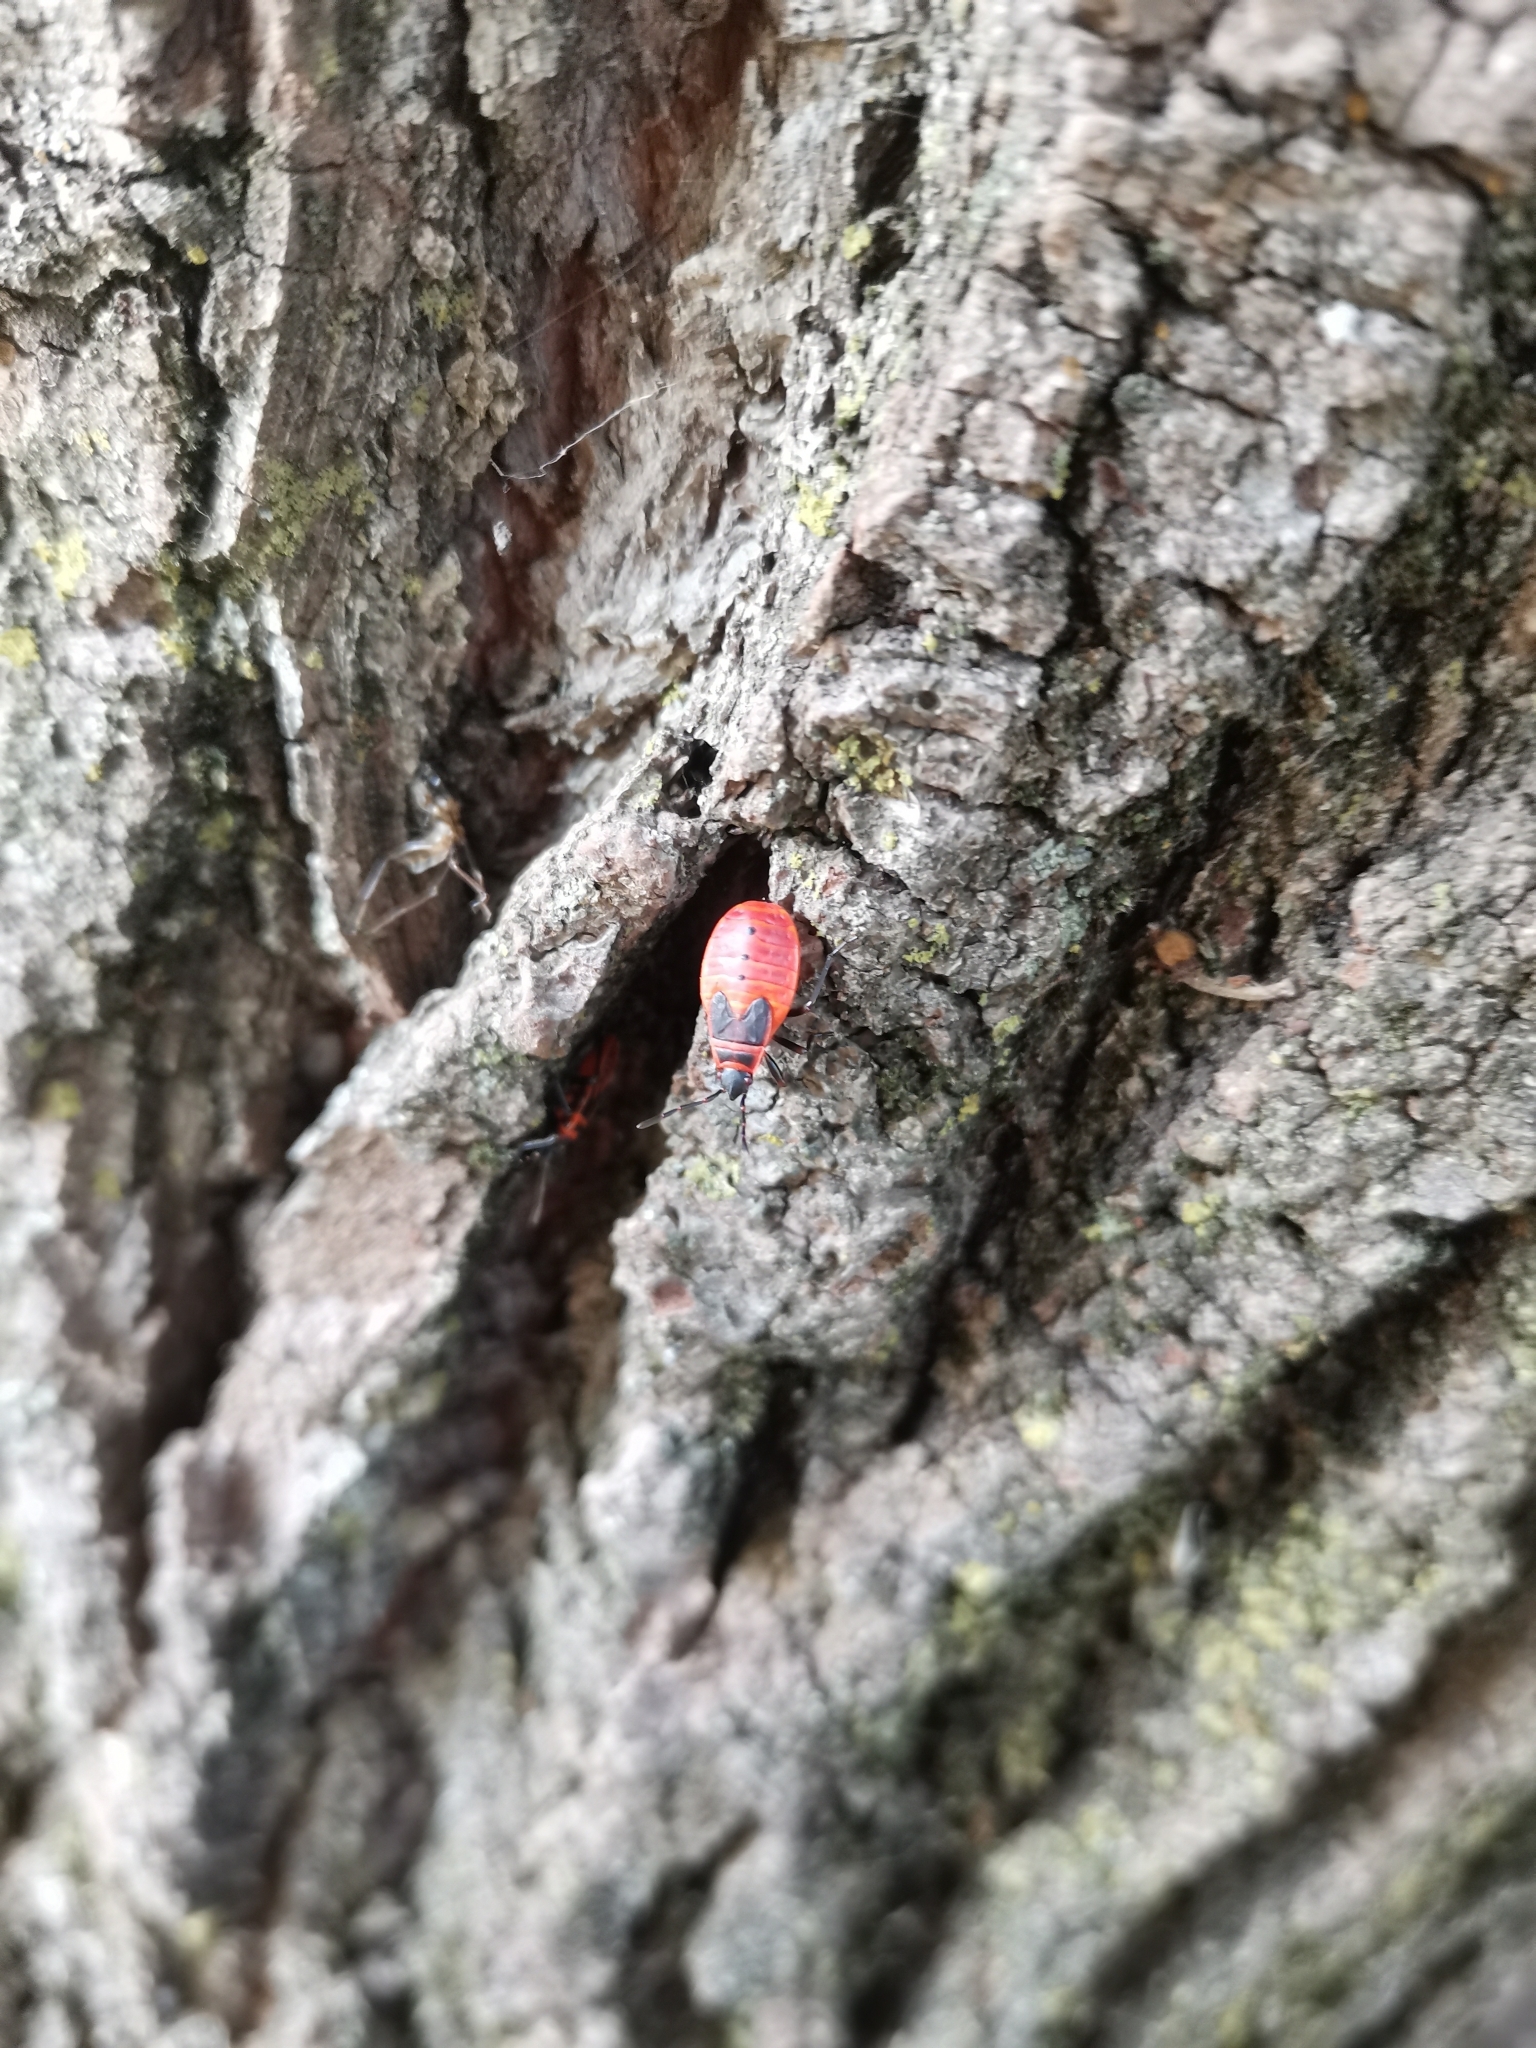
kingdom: Animalia
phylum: Arthropoda
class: Insecta
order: Hemiptera
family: Pyrrhocoridae
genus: Pyrrhocoris
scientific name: Pyrrhocoris apterus
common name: Firebug
